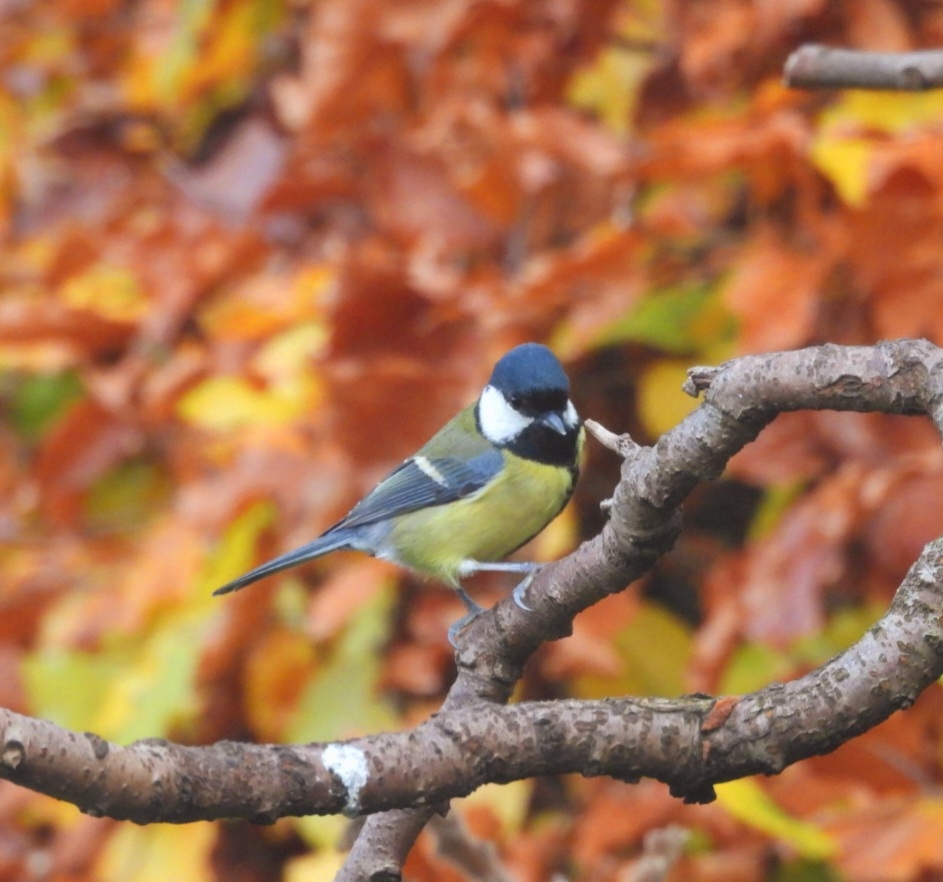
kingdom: Animalia
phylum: Chordata
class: Aves
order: Passeriformes
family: Paridae
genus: Parus
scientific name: Parus major
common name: Great tit
